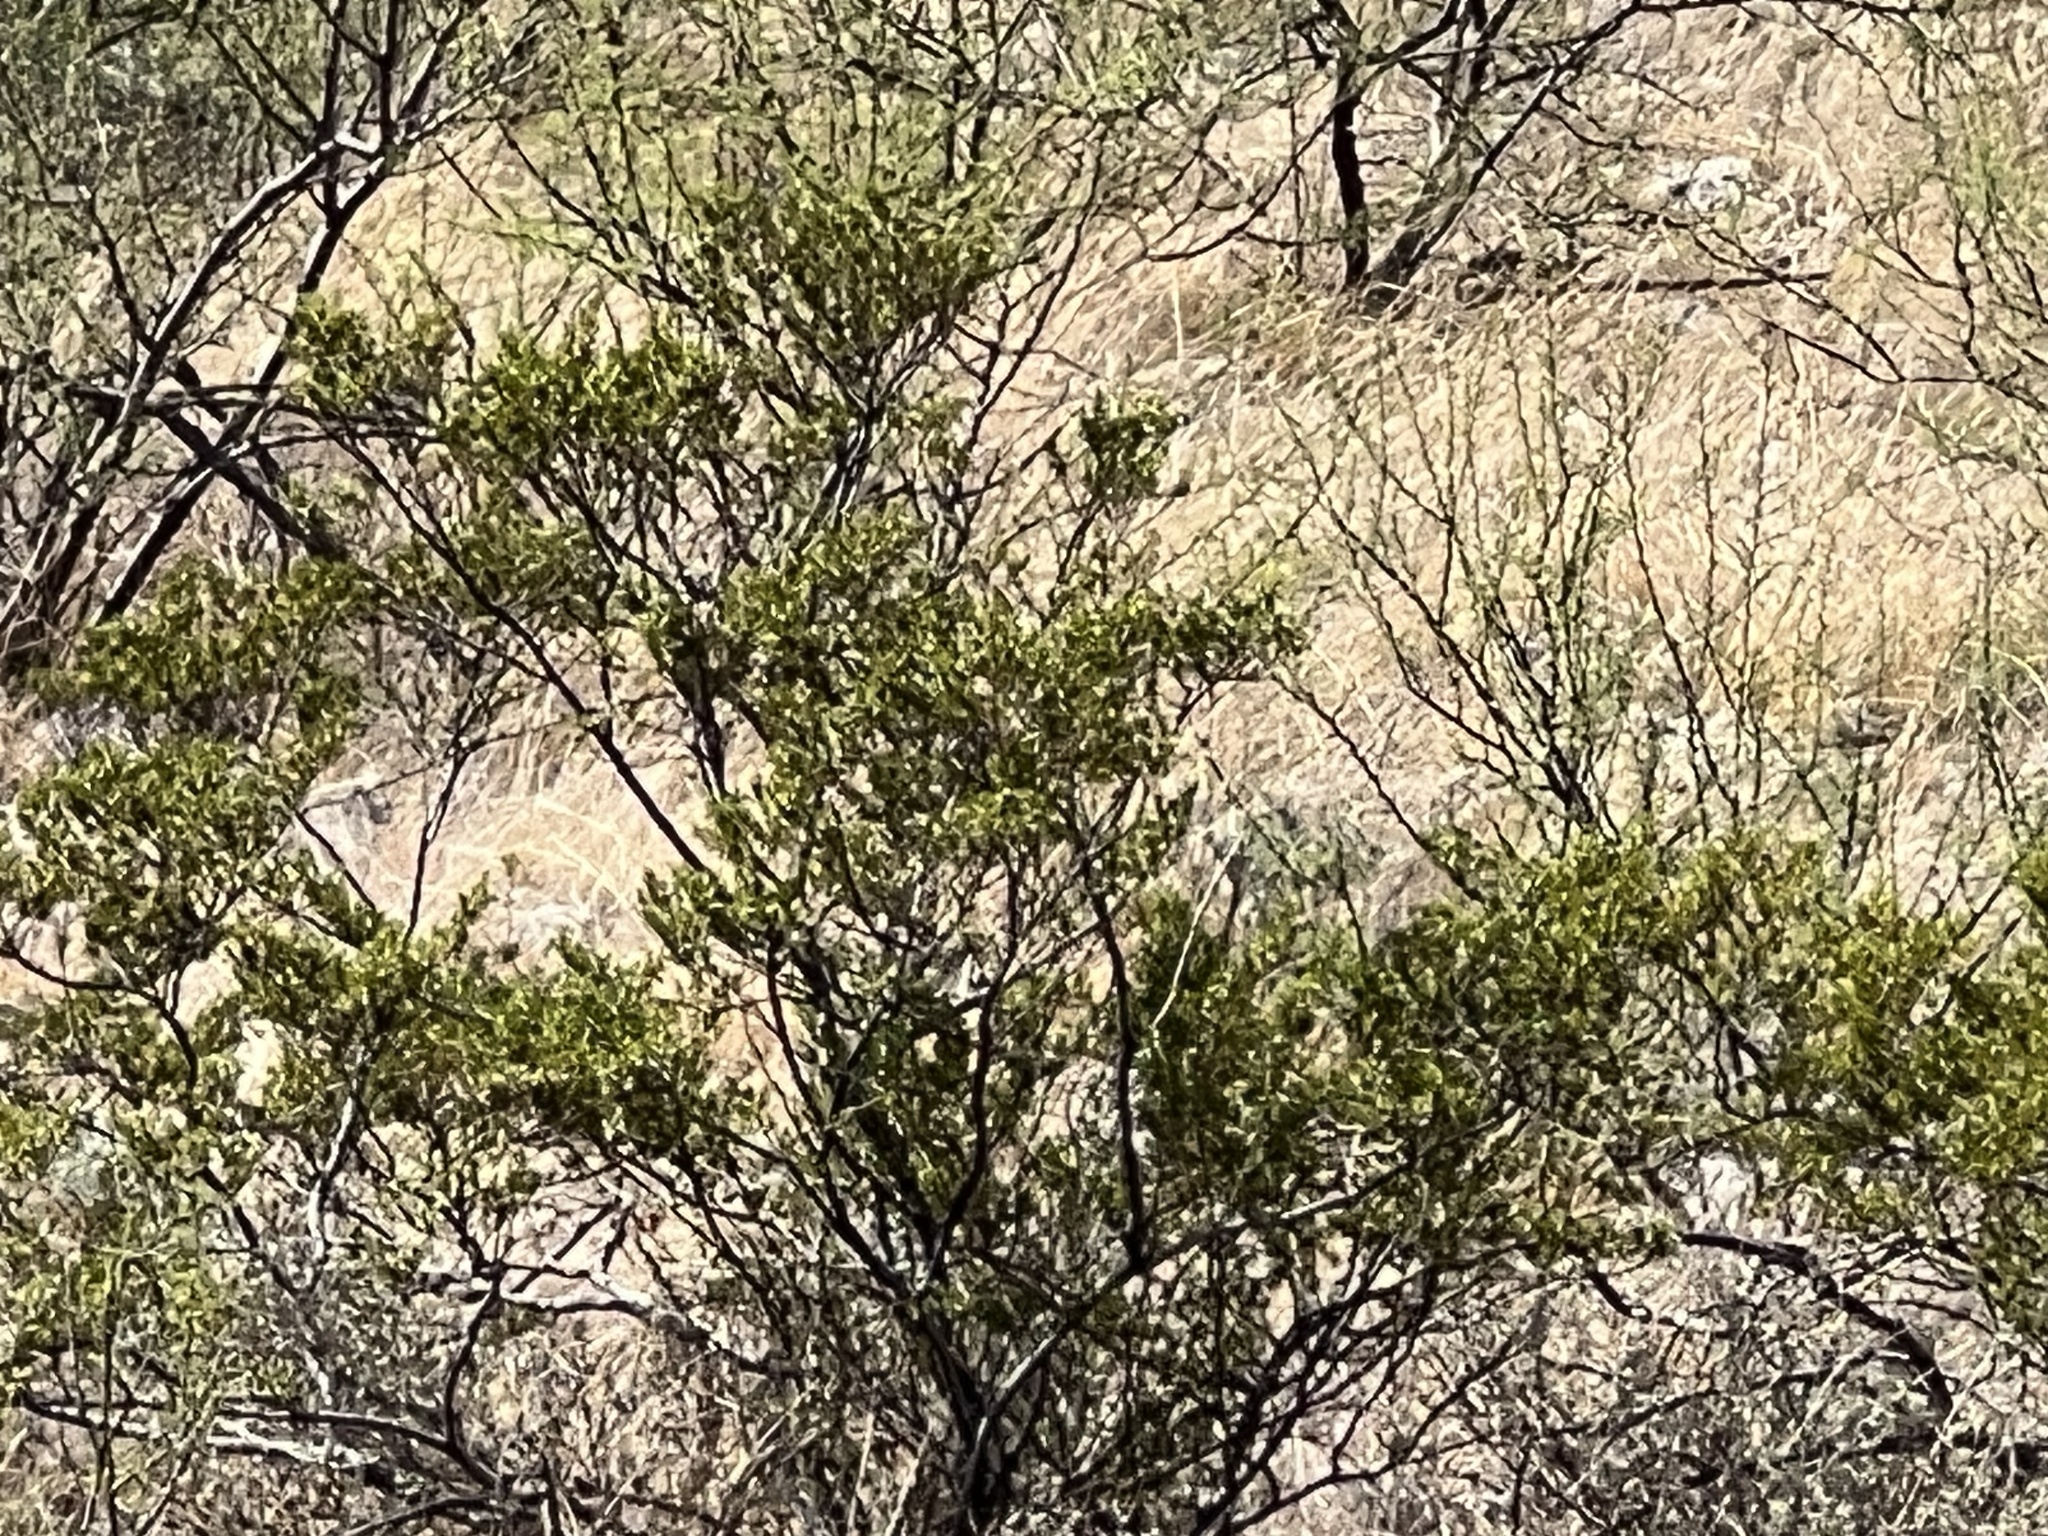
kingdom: Plantae
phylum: Tracheophyta
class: Magnoliopsida
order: Zygophyllales
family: Zygophyllaceae
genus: Larrea
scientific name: Larrea tridentata
